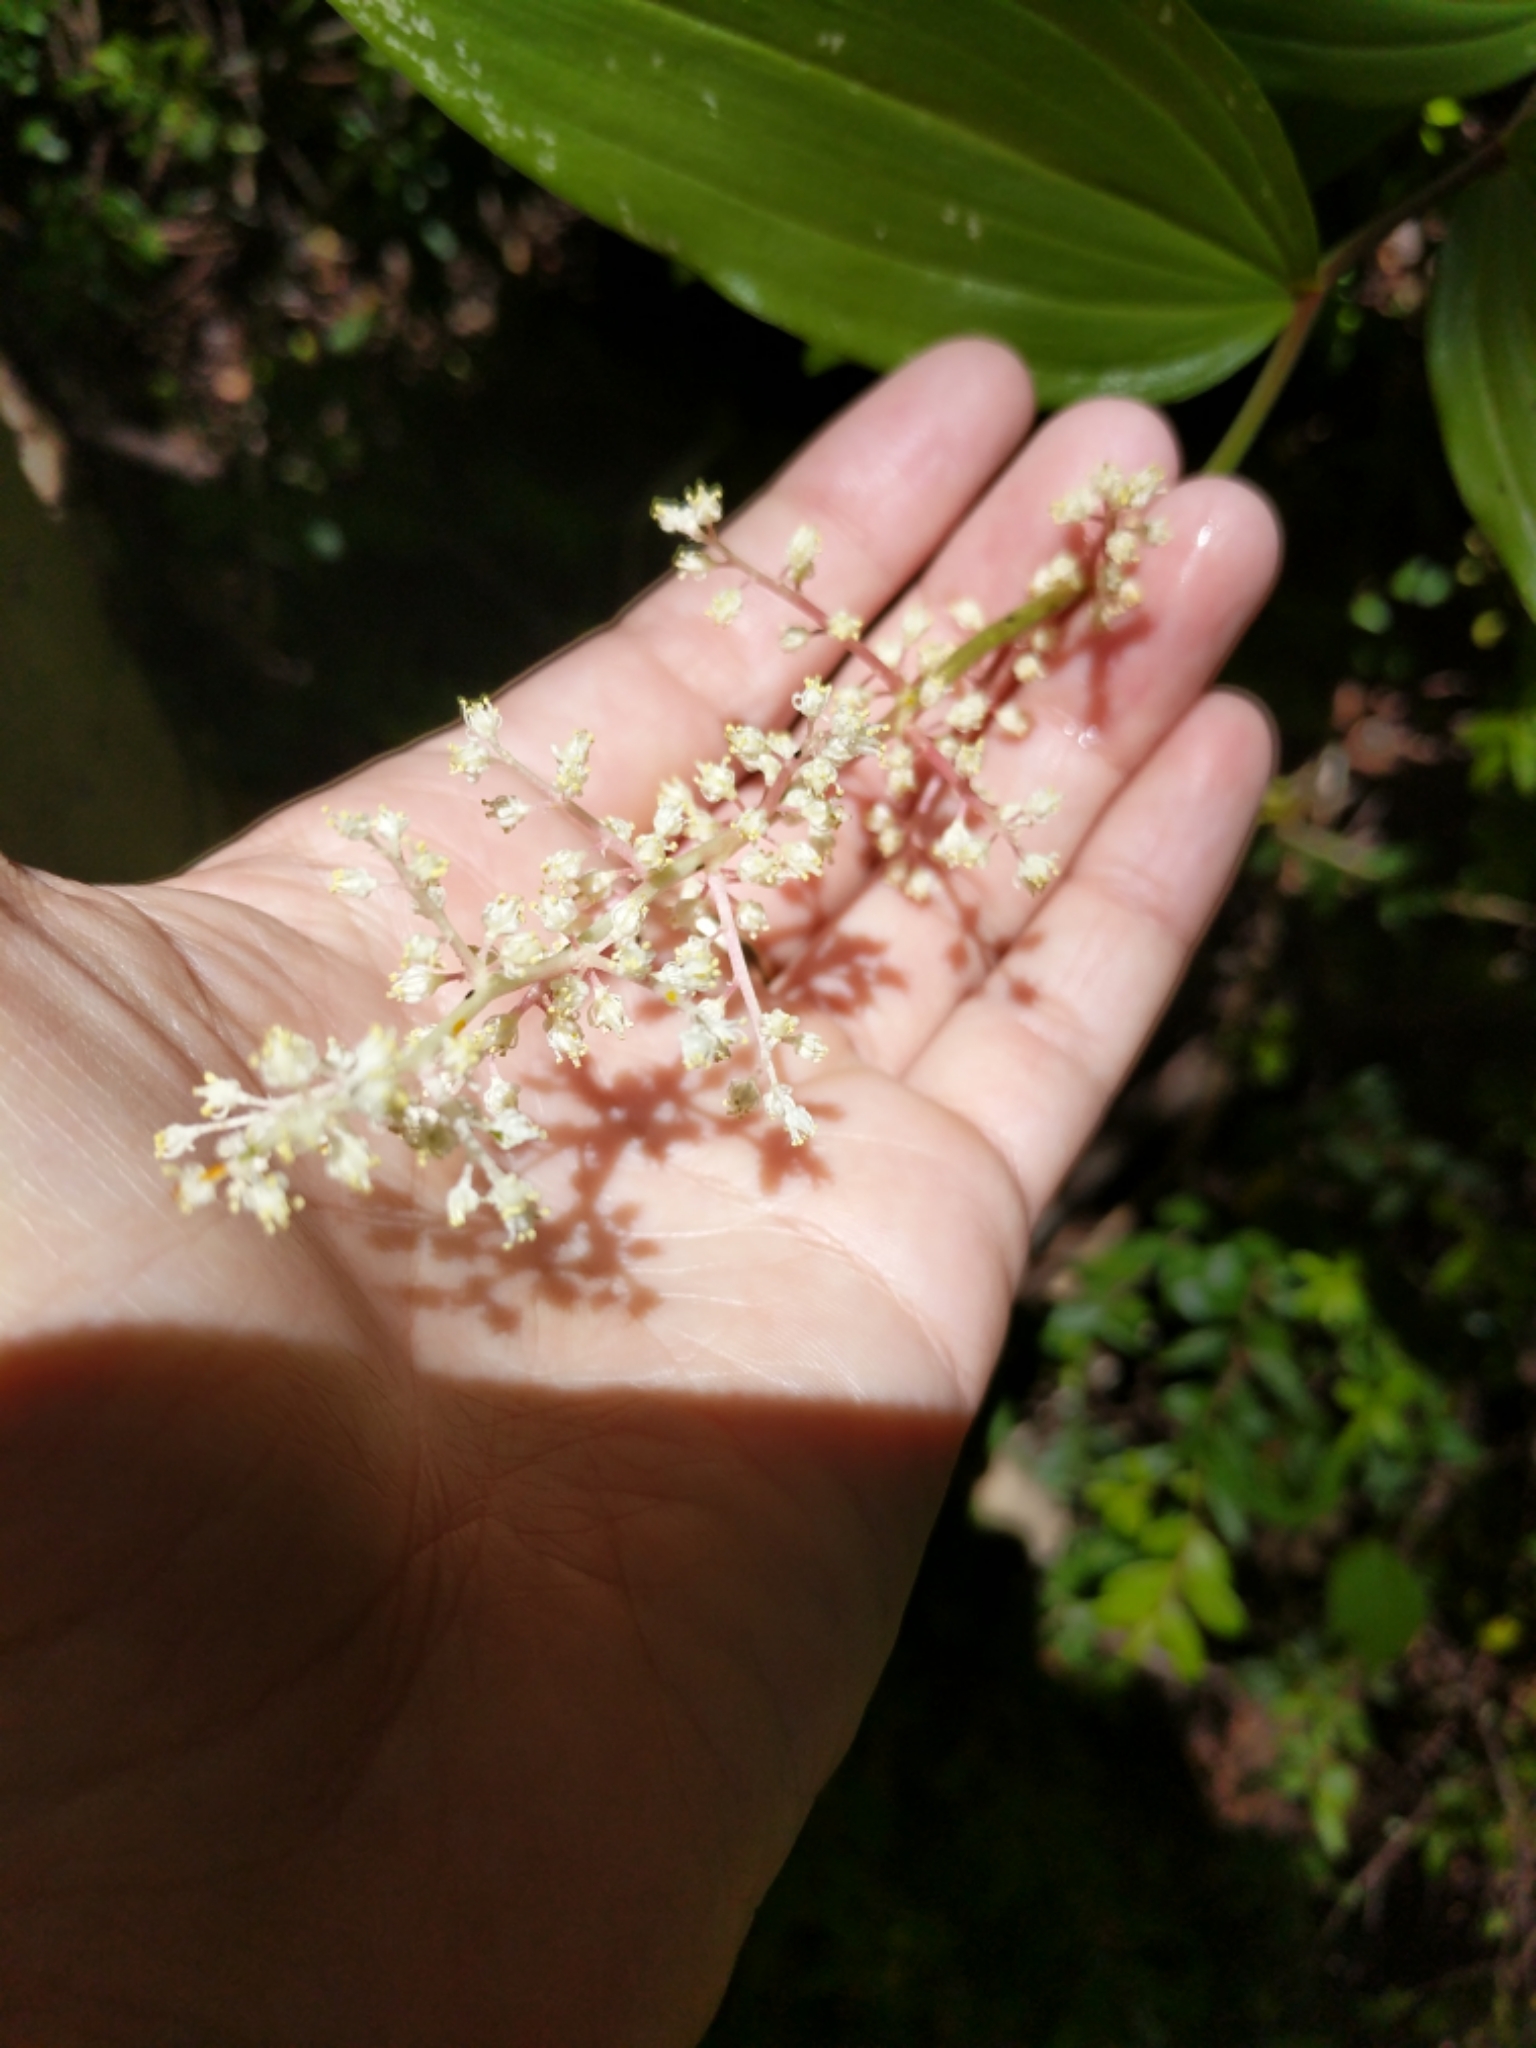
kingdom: Plantae
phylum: Tracheophyta
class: Liliopsida
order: Asparagales
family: Asparagaceae
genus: Maianthemum
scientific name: Maianthemum racemosum
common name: False spikenard
